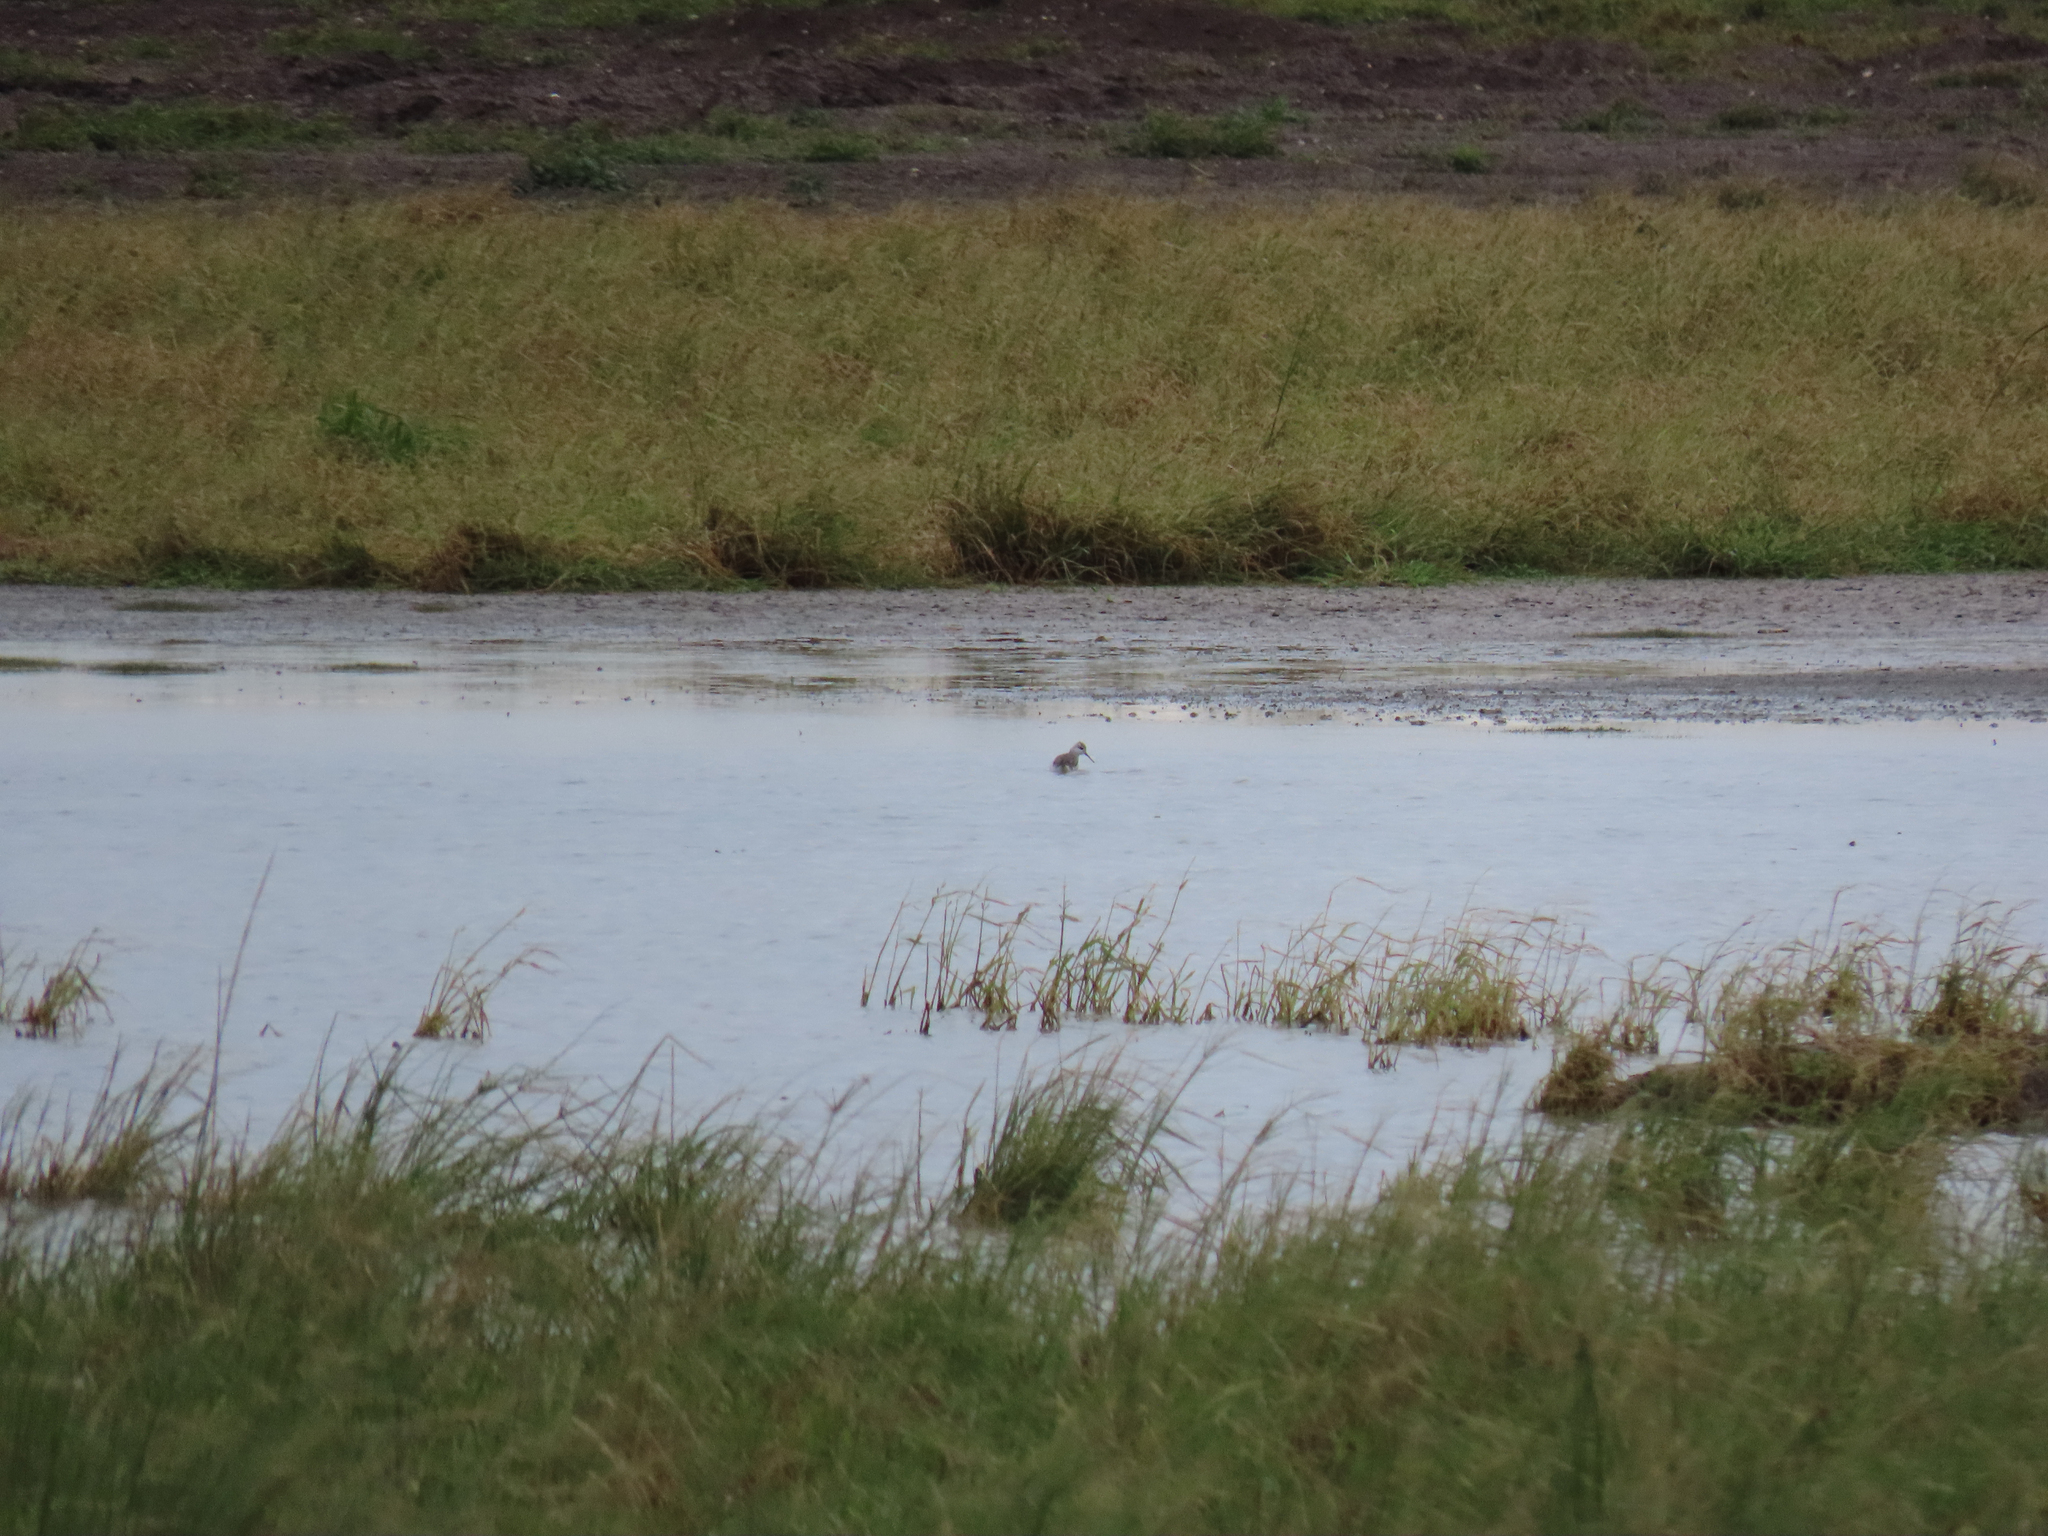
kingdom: Animalia
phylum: Chordata
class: Aves
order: Charadriiformes
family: Scolopacidae
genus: Phalaropus
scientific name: Phalaropus tricolor
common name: Wilson's phalarope
